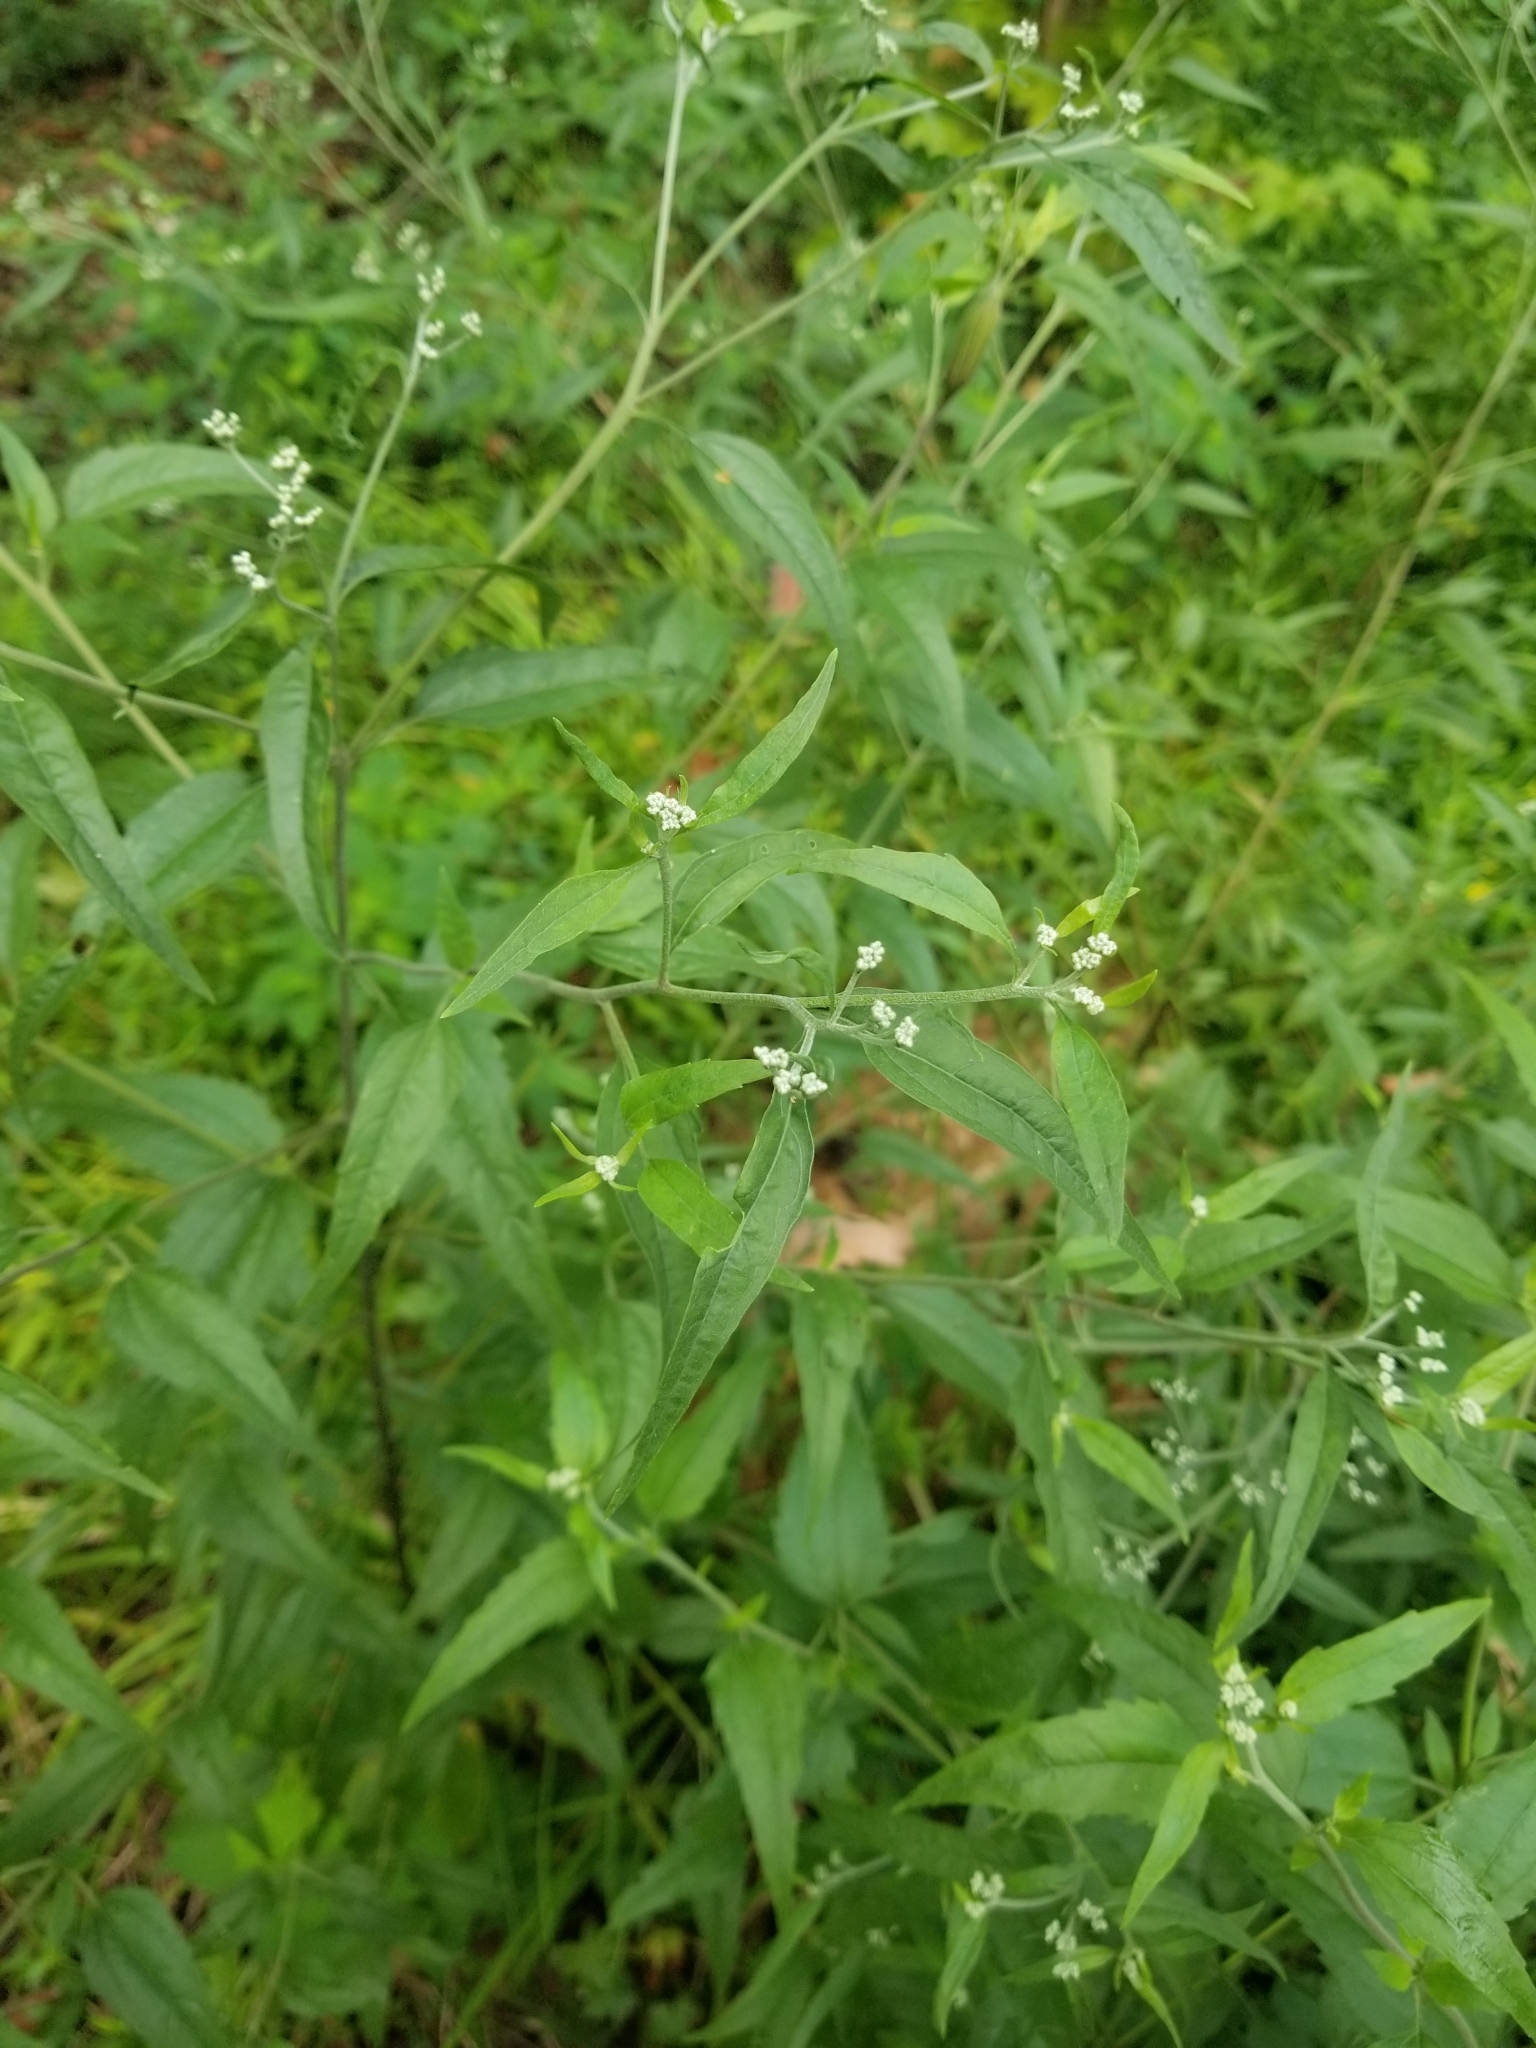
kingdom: Plantae
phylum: Tracheophyta
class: Magnoliopsida
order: Asterales
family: Asteraceae
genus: Eupatorium
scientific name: Eupatorium serotinum
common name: Late boneset
